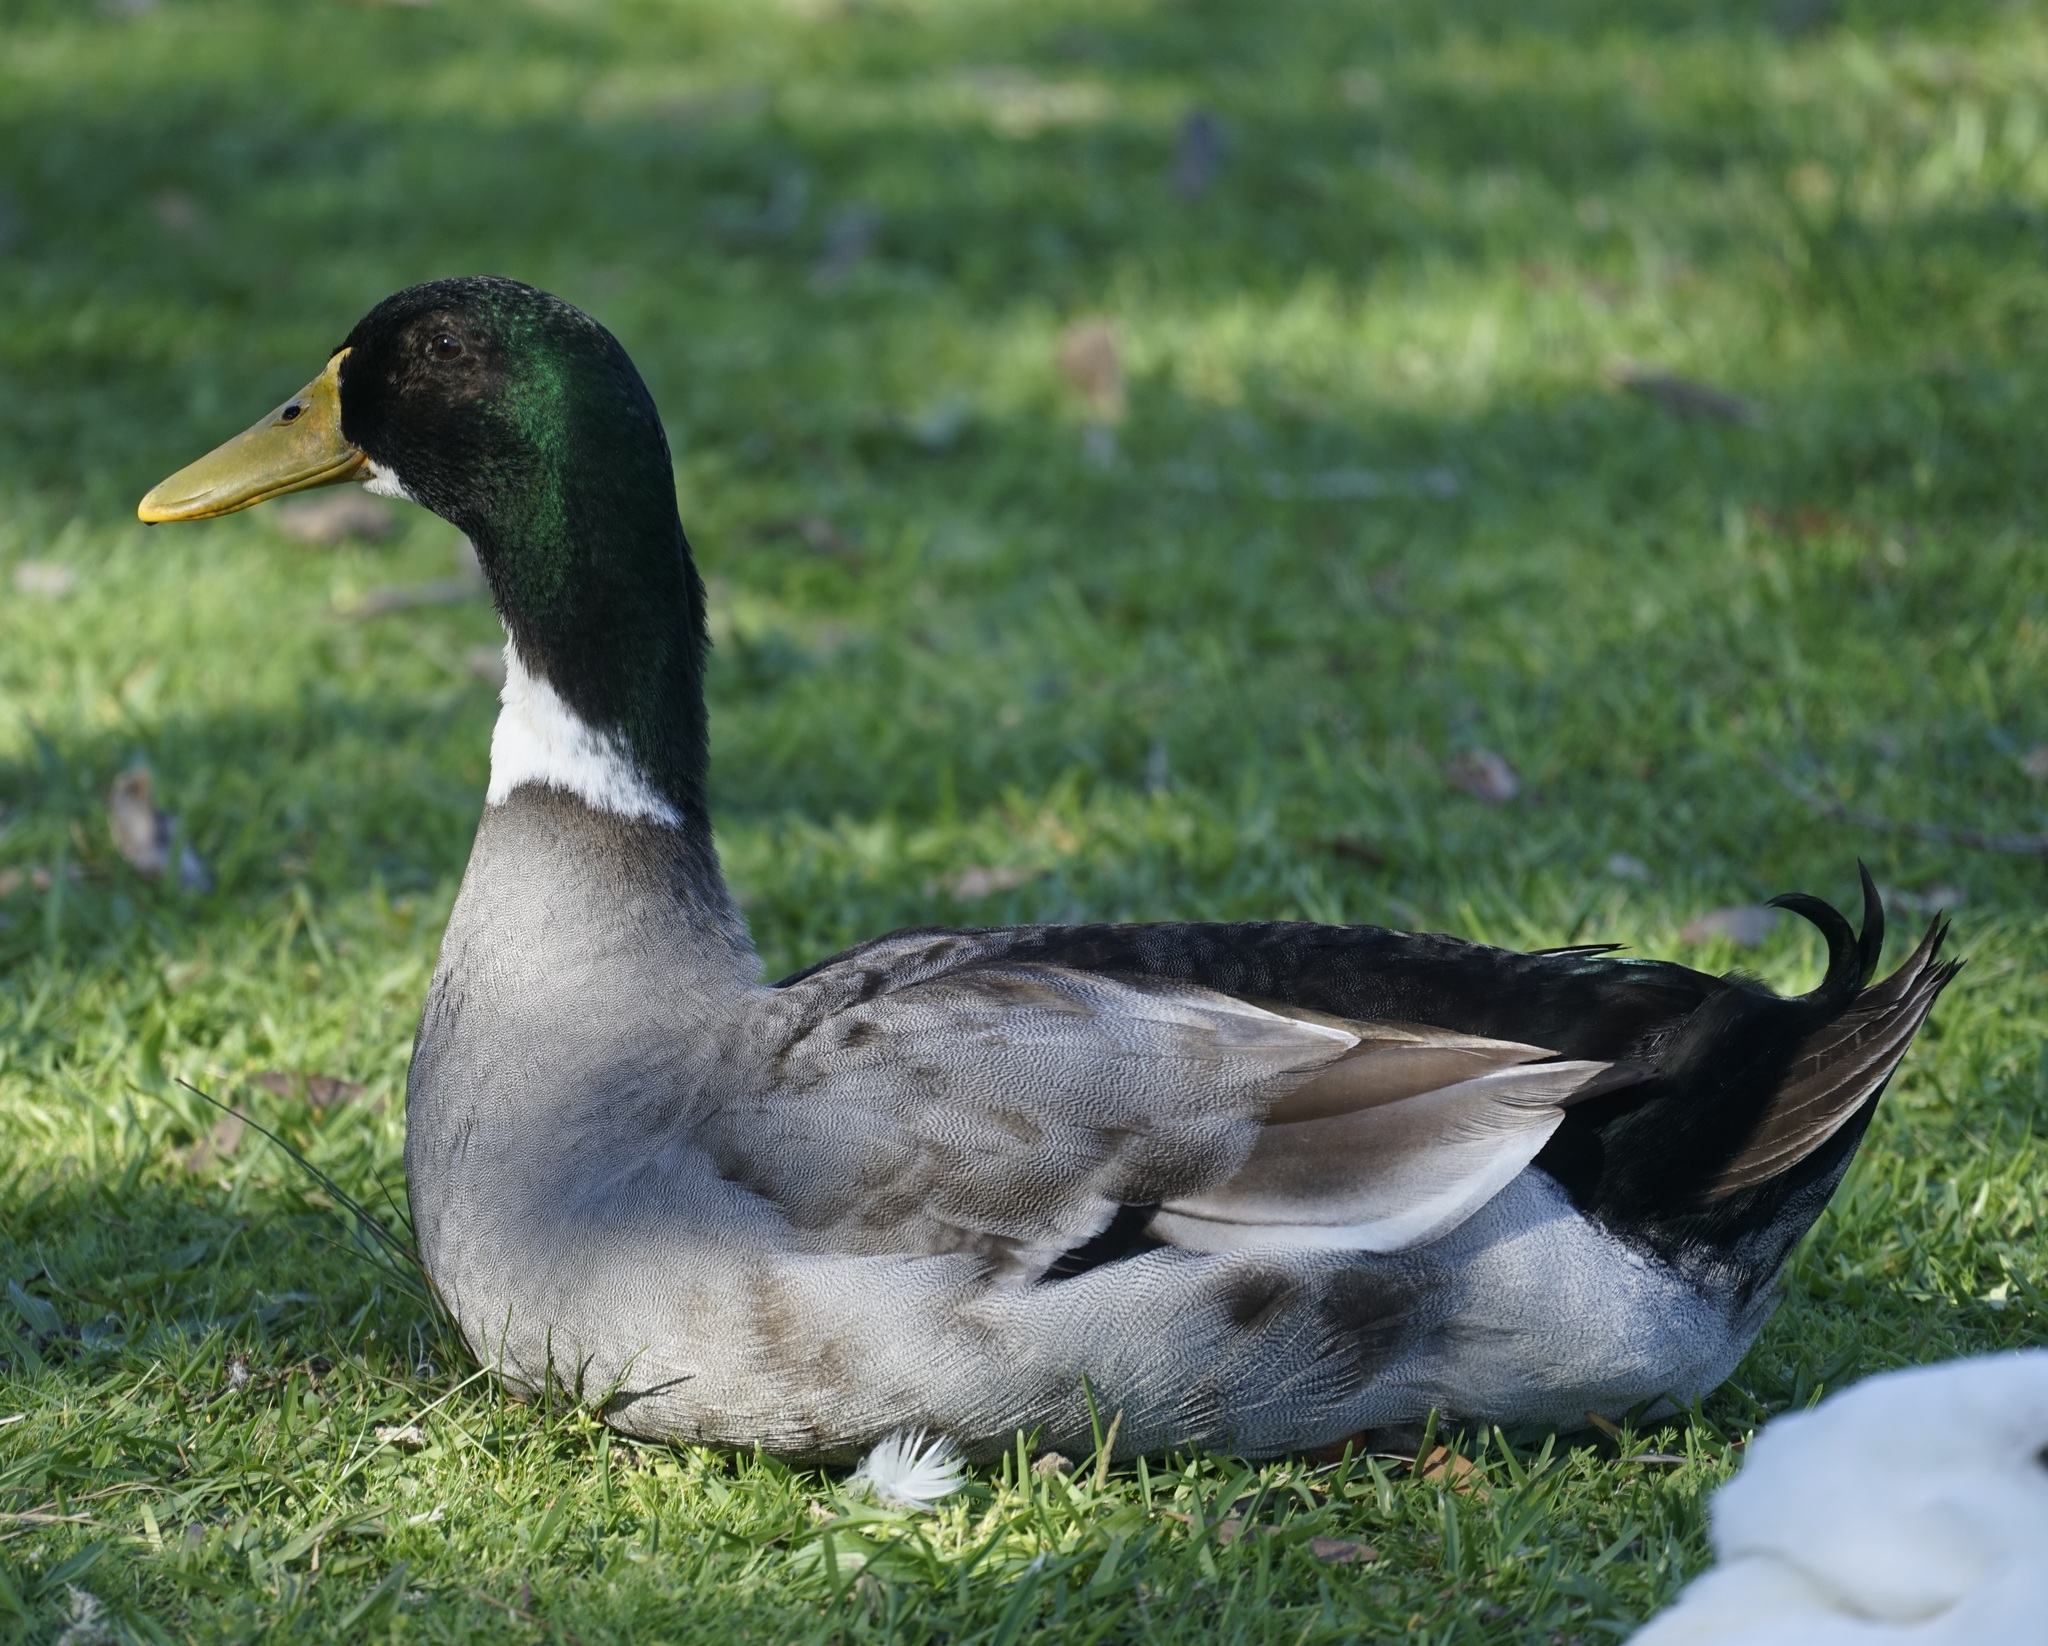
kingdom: Animalia
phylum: Chordata
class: Aves
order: Anseriformes
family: Anatidae
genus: Anas
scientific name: Anas platyrhynchos
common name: Mallard
